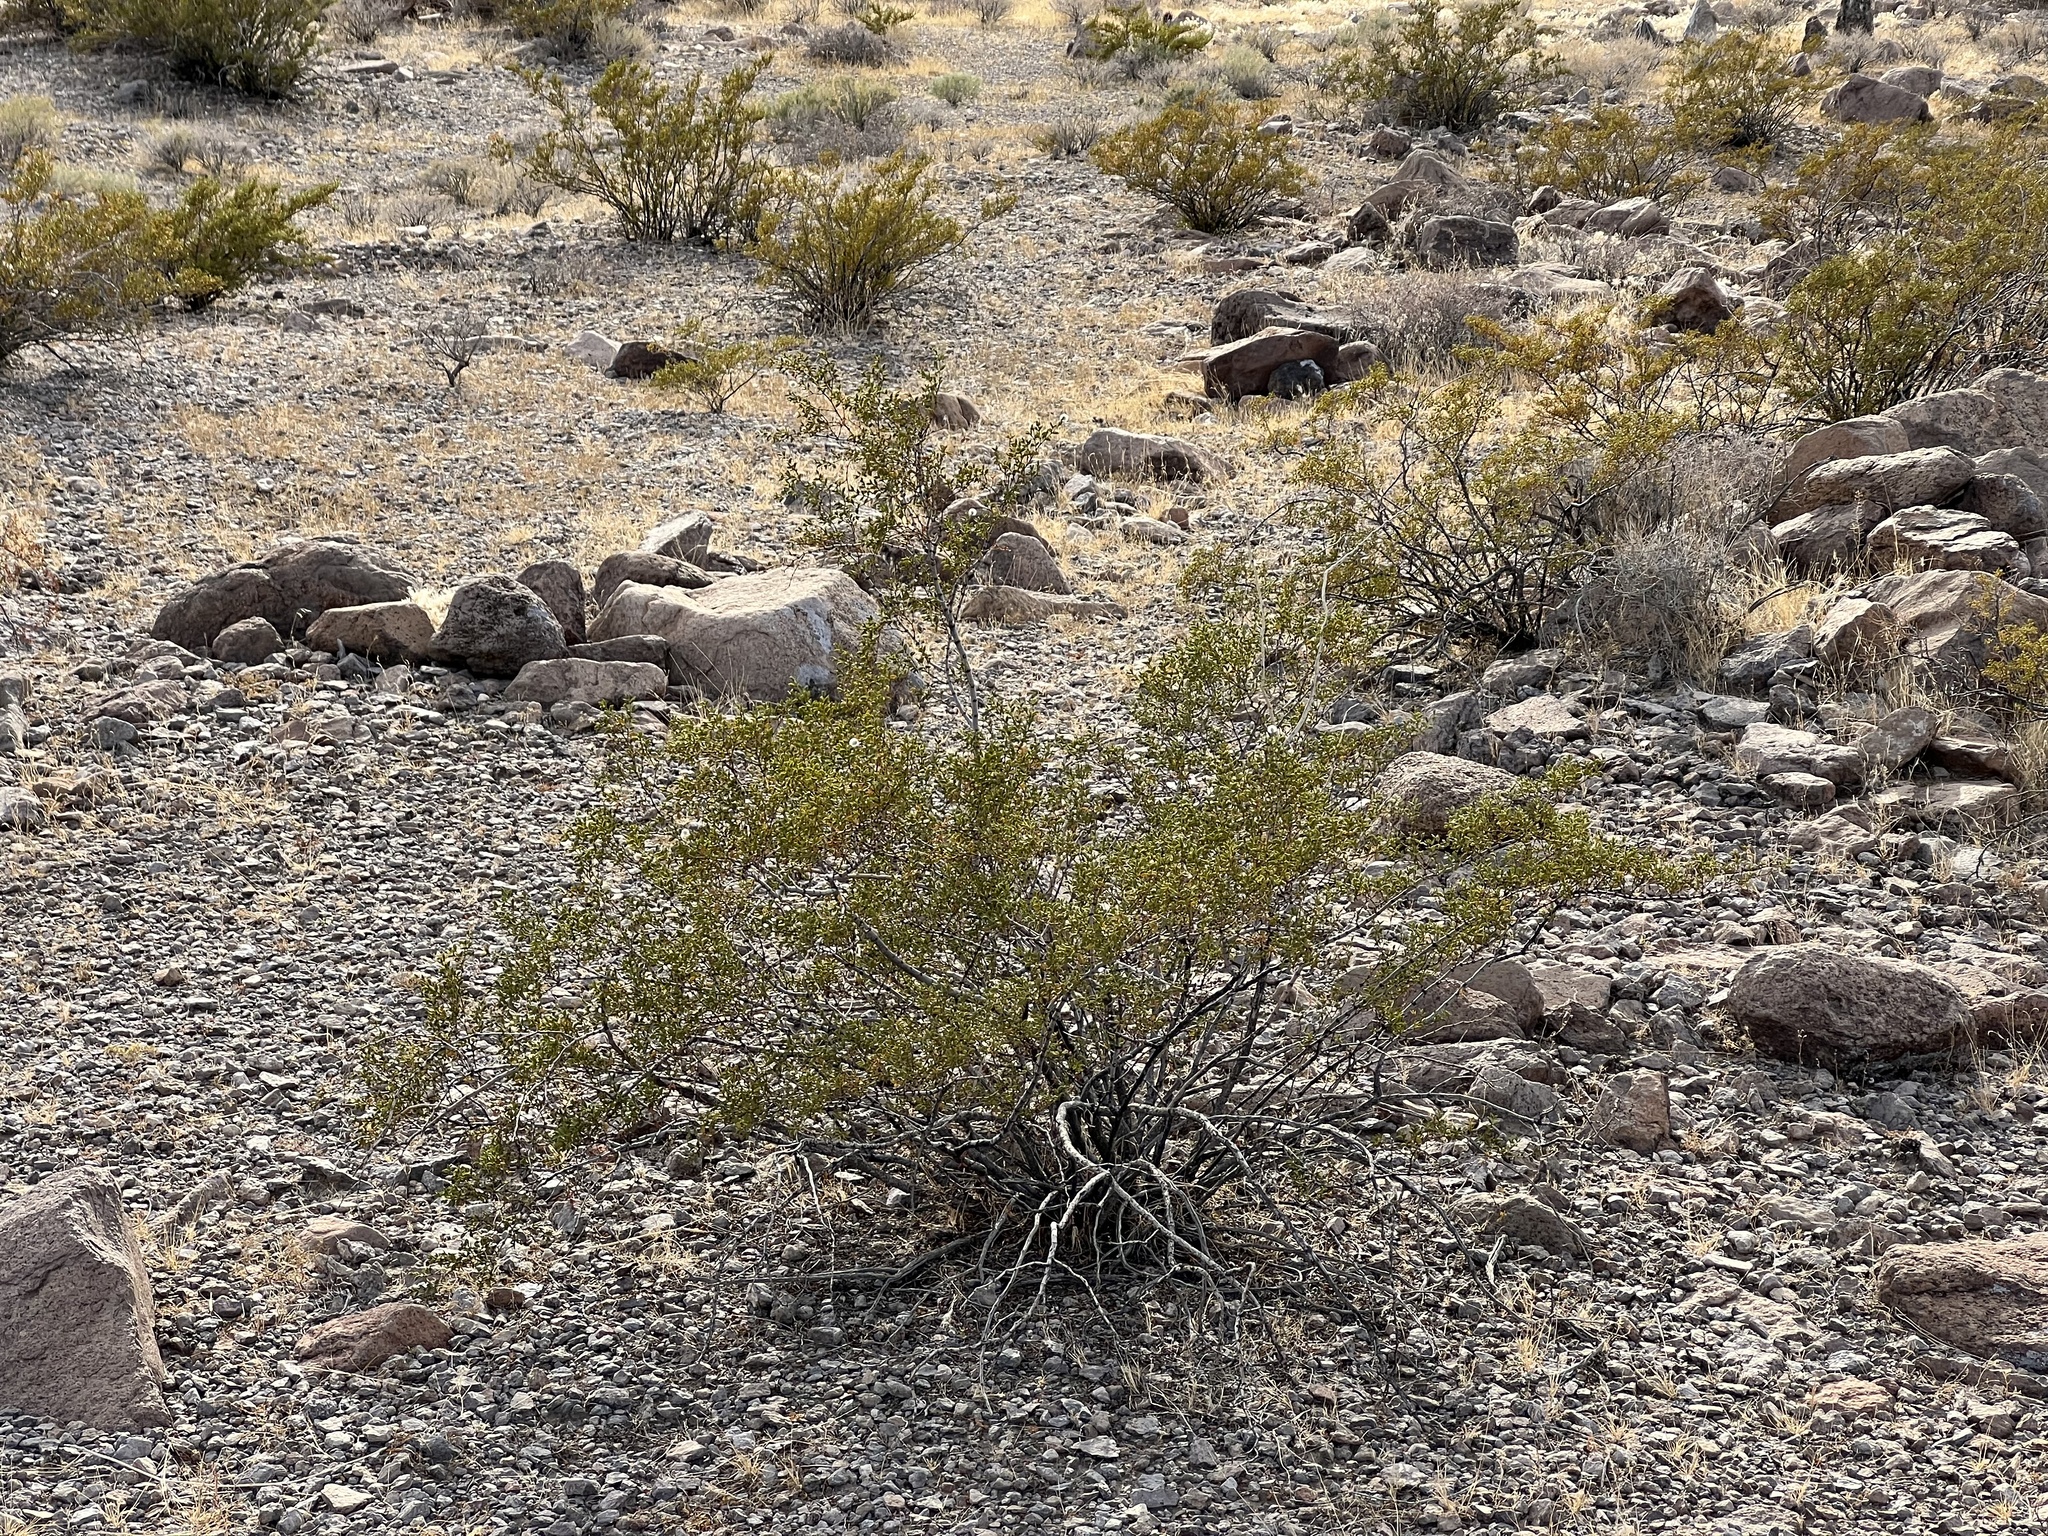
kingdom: Plantae
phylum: Tracheophyta
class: Magnoliopsida
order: Zygophyllales
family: Zygophyllaceae
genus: Larrea
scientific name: Larrea tridentata
